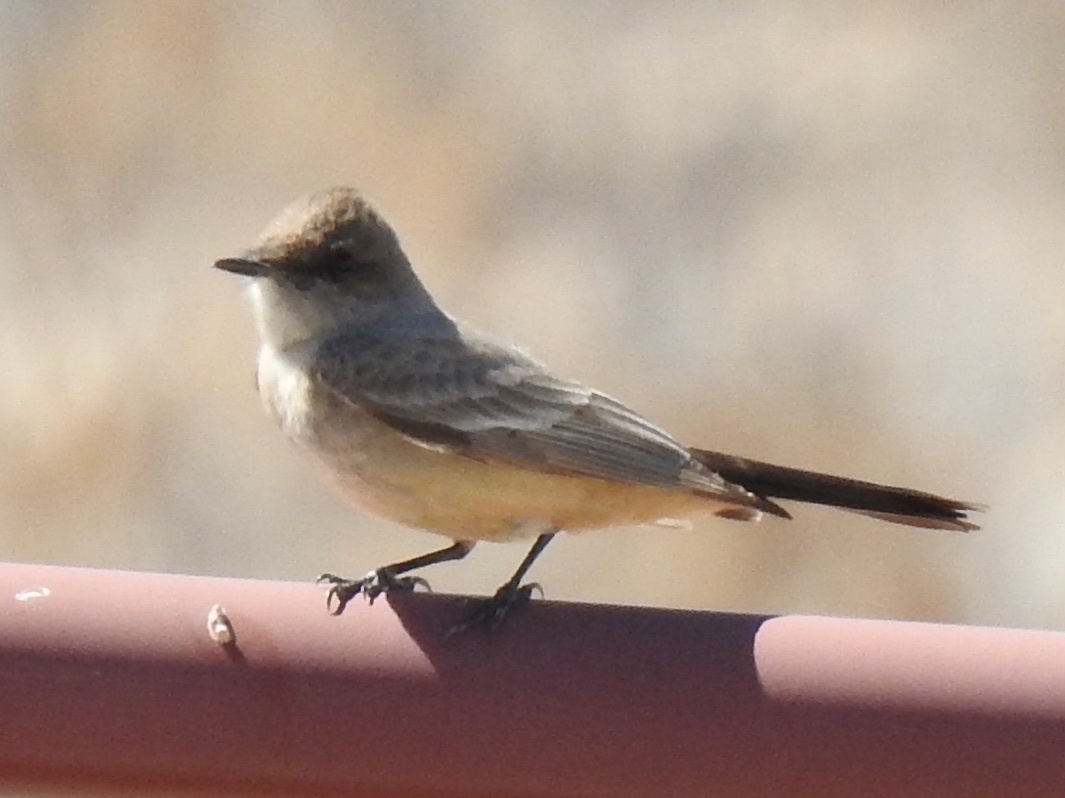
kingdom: Animalia
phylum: Chordata
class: Aves
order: Passeriformes
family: Tyrannidae
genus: Sayornis
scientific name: Sayornis saya
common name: Say's phoebe
